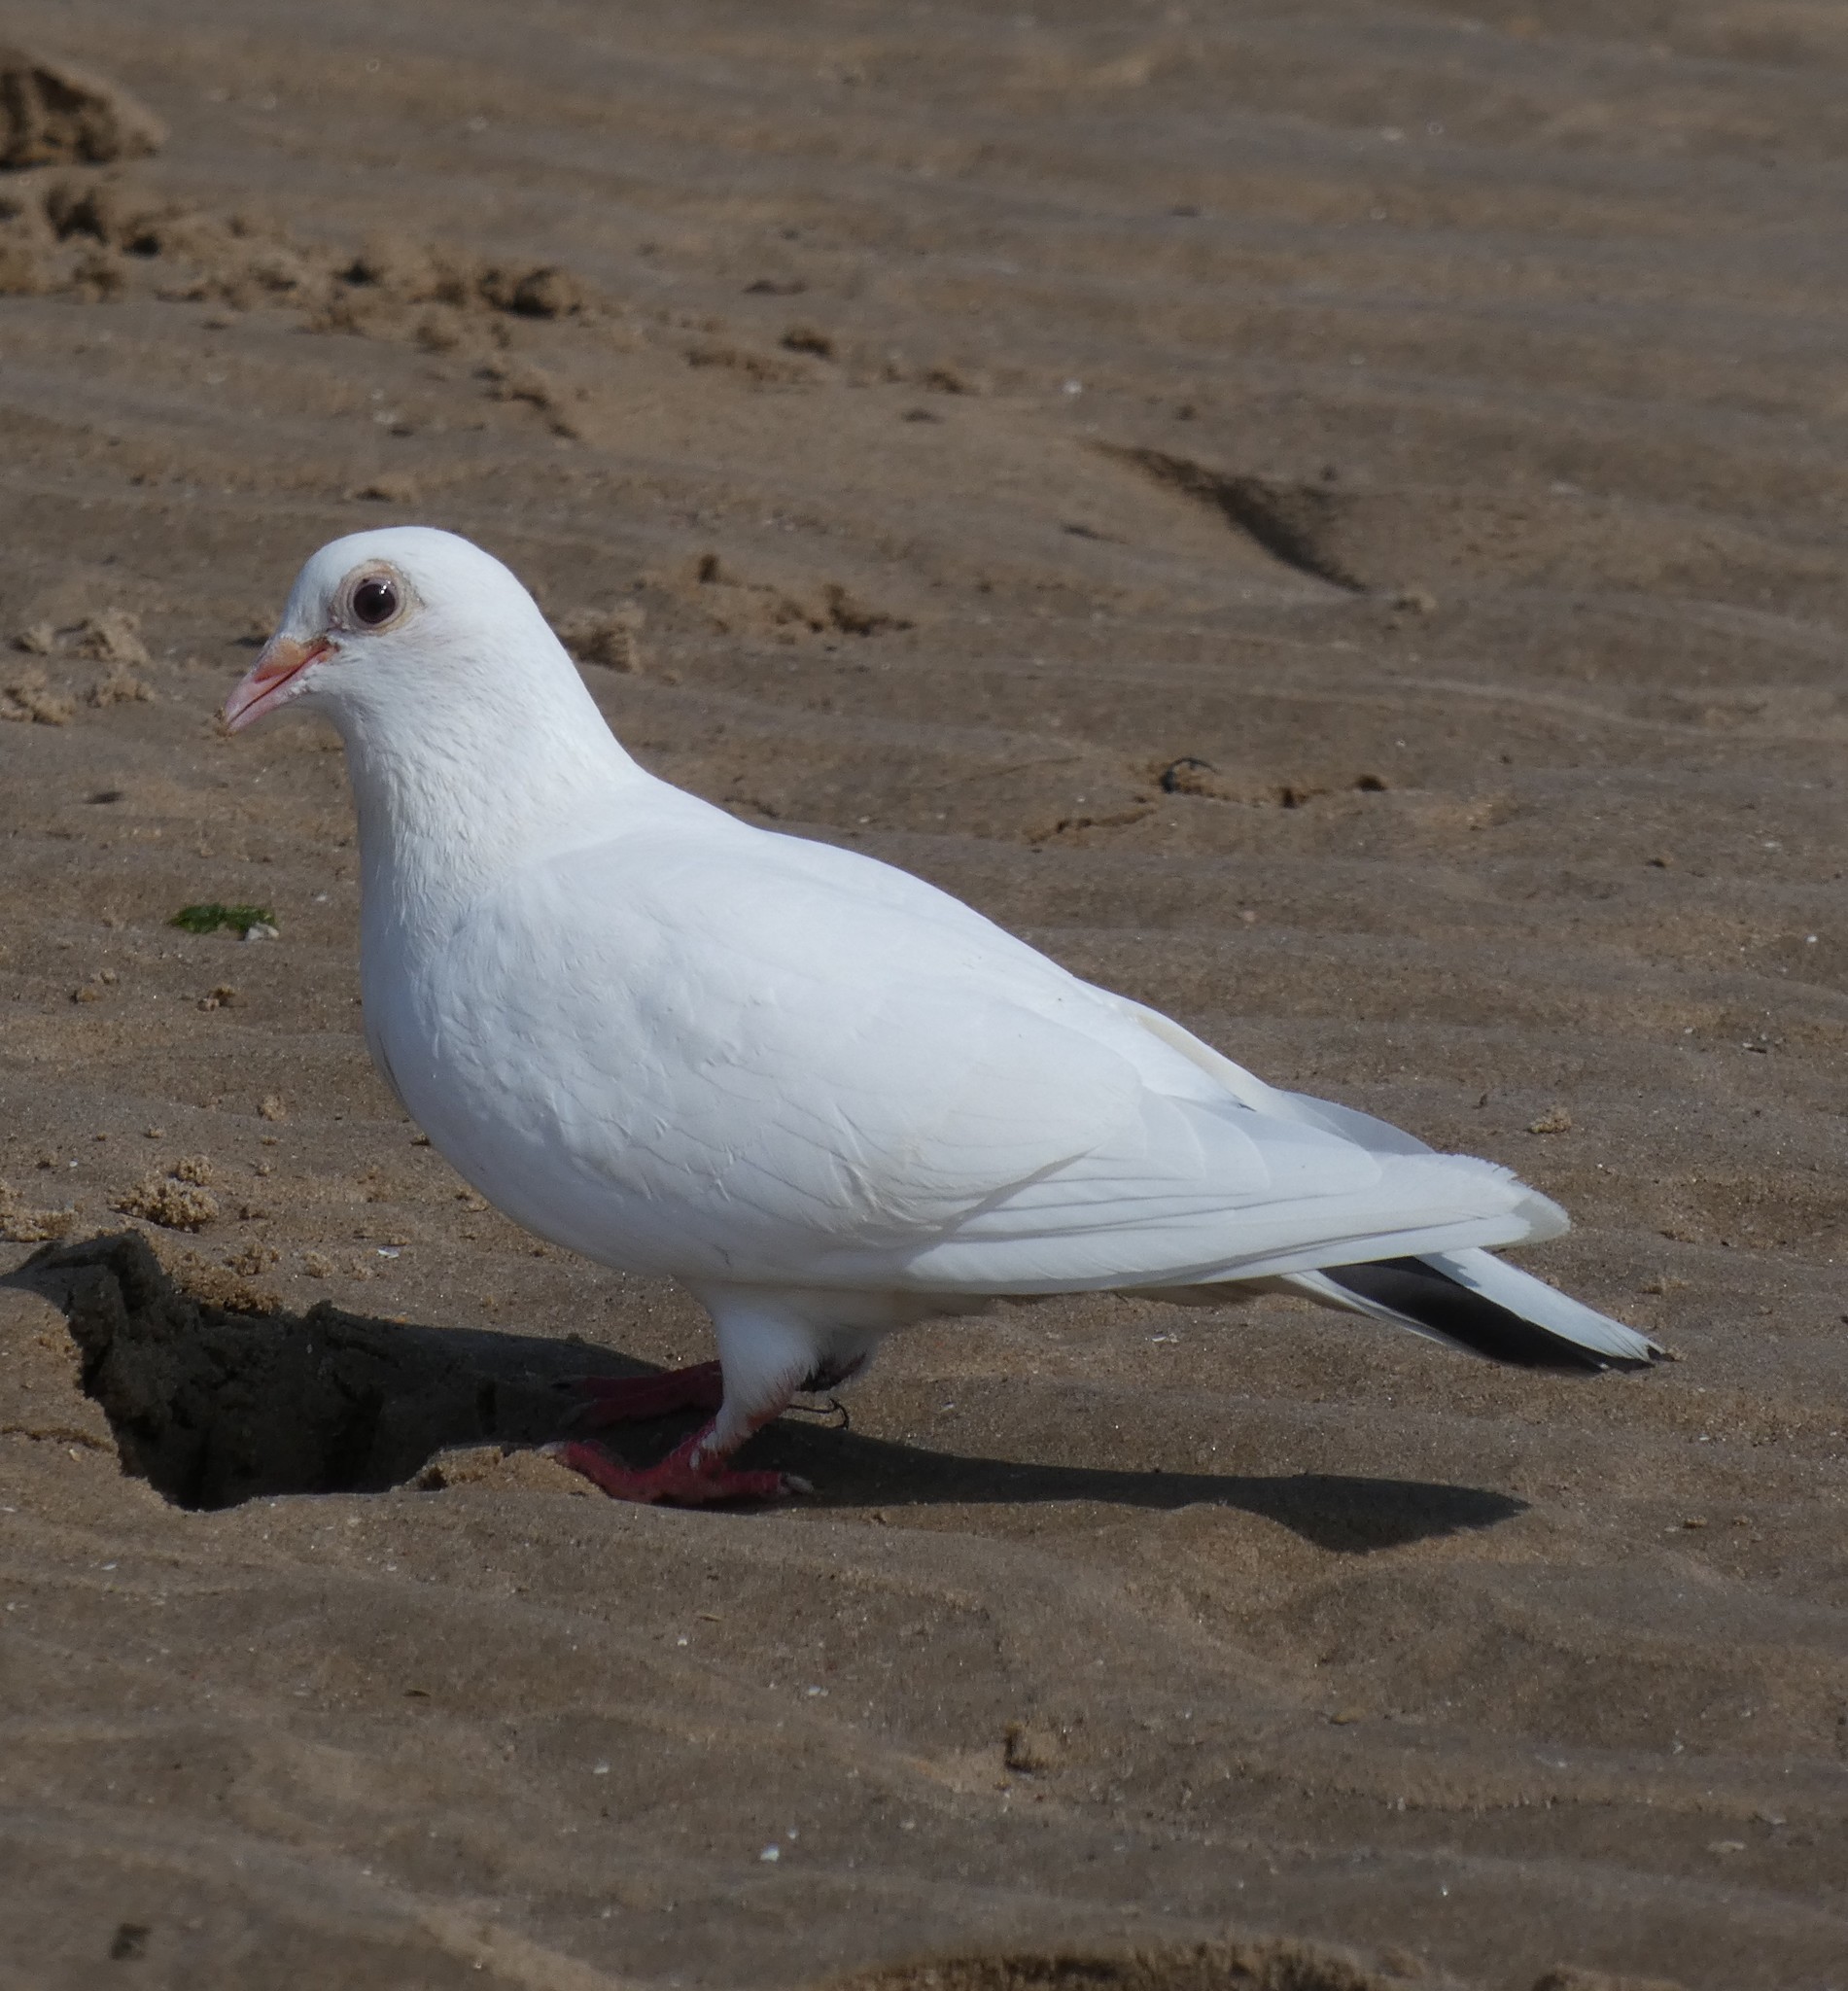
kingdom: Animalia
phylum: Chordata
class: Aves
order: Columbiformes
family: Columbidae
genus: Columba
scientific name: Columba livia
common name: Rock pigeon
